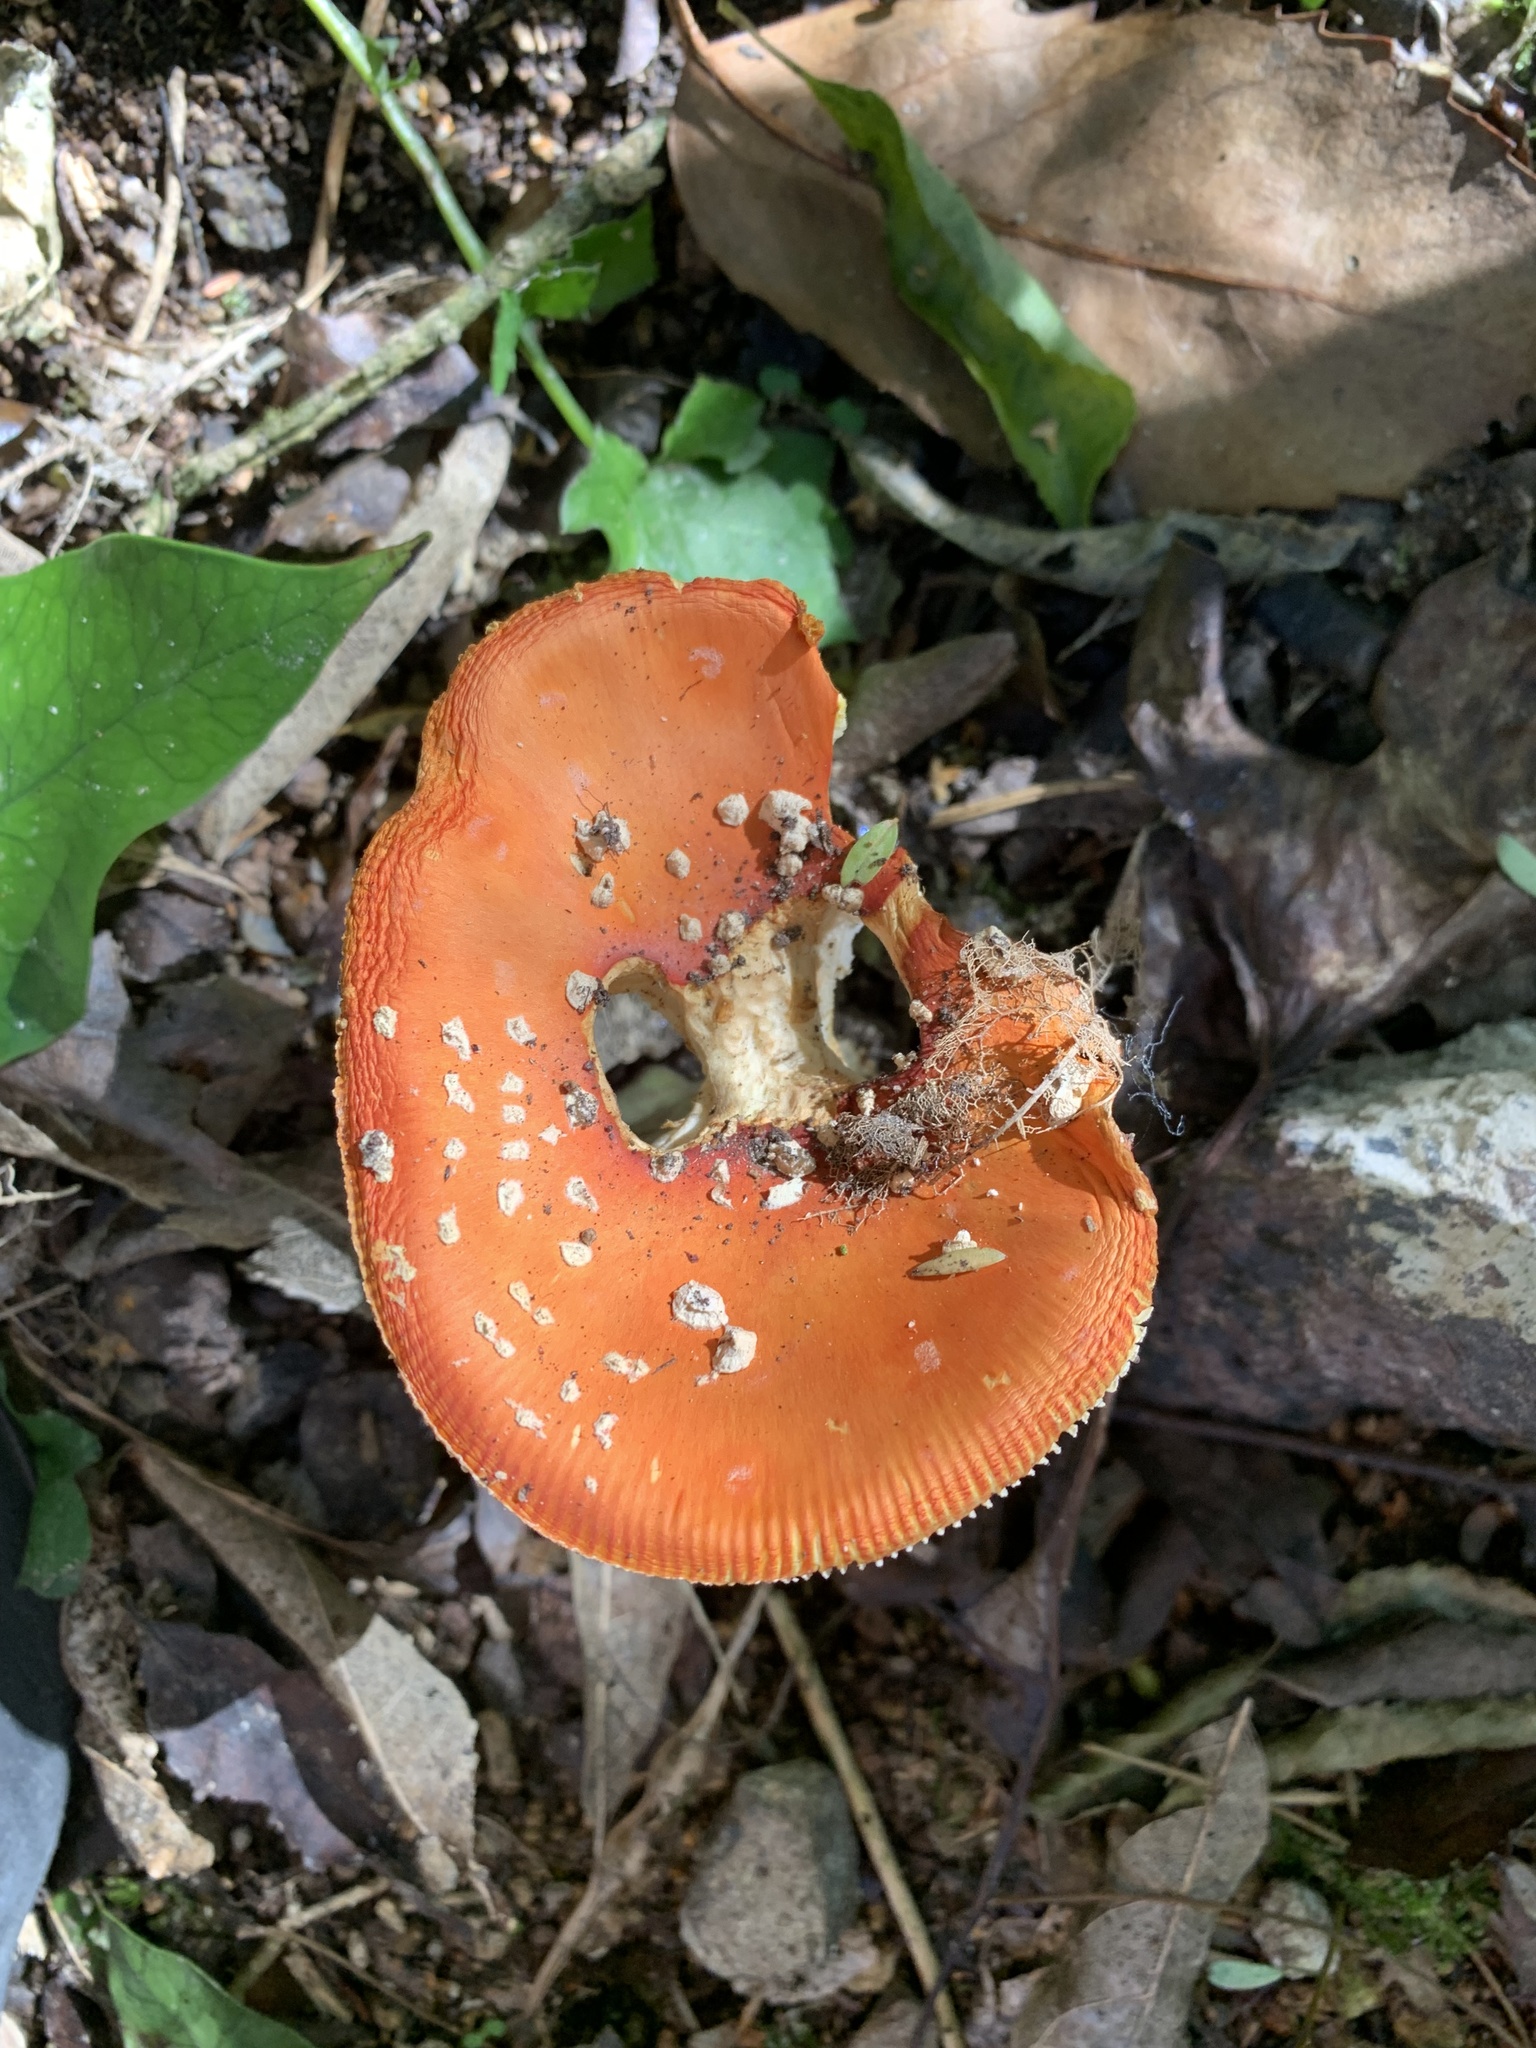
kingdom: Fungi
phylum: Basidiomycota
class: Agaricomycetes
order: Agaricales
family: Amanitaceae
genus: Amanita
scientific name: Amanita muscaria
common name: Fly agaric
